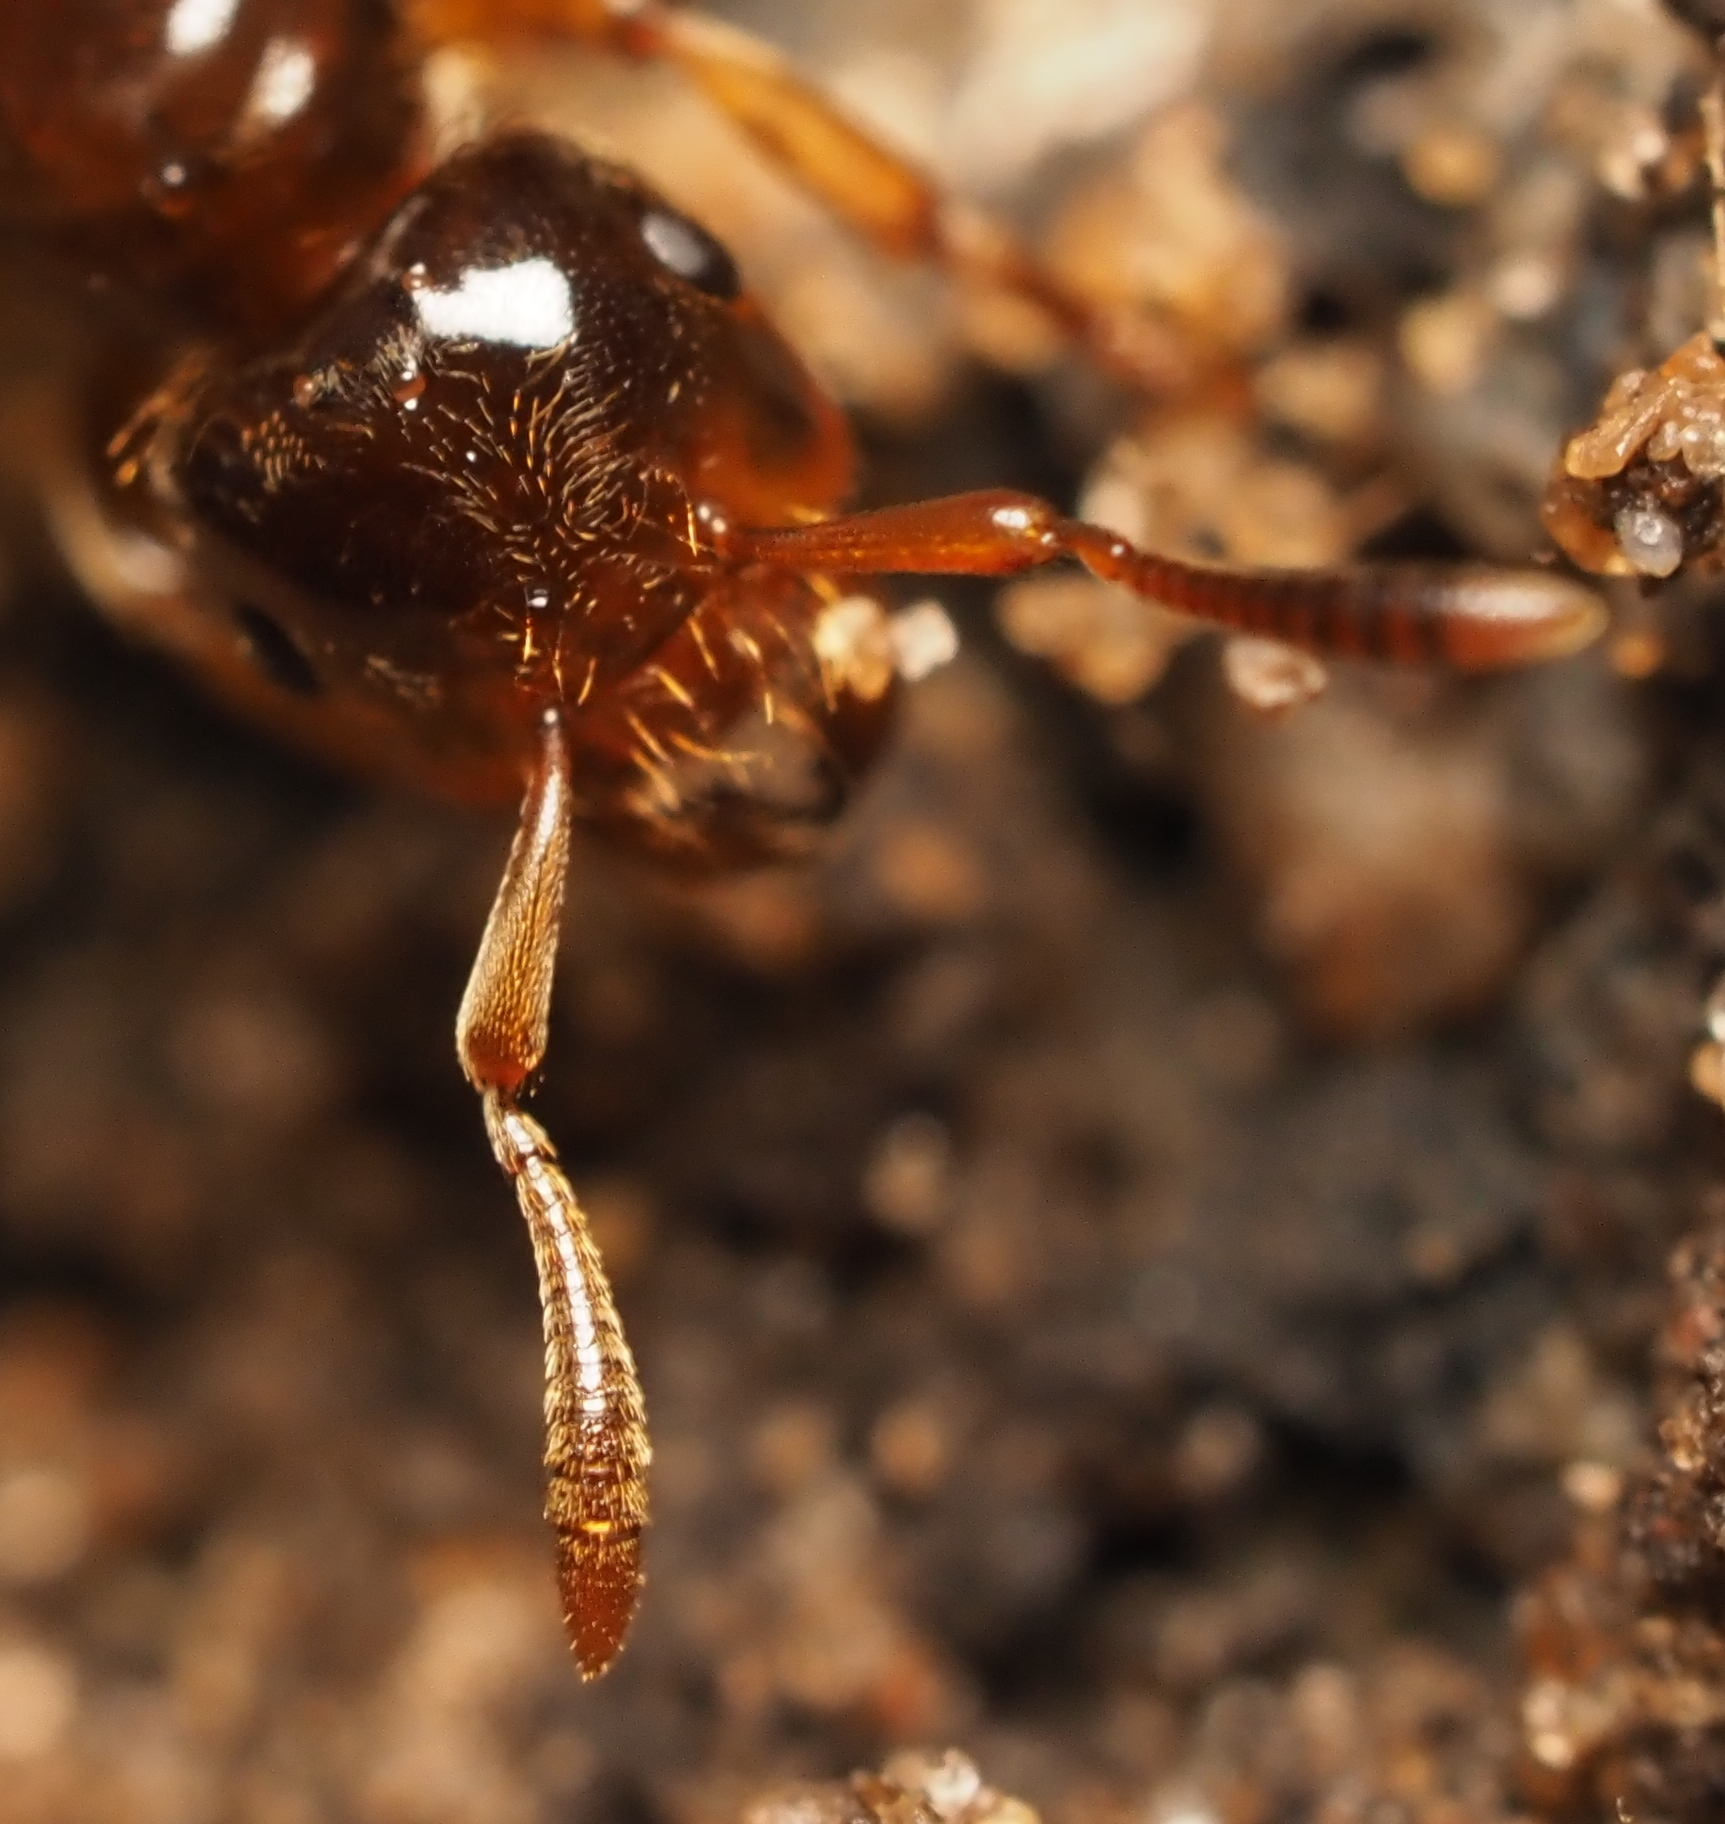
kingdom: Animalia
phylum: Arthropoda
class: Insecta
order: Hymenoptera
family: Formicidae
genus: Lasius
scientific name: Lasius claviger
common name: Common citronella ant
